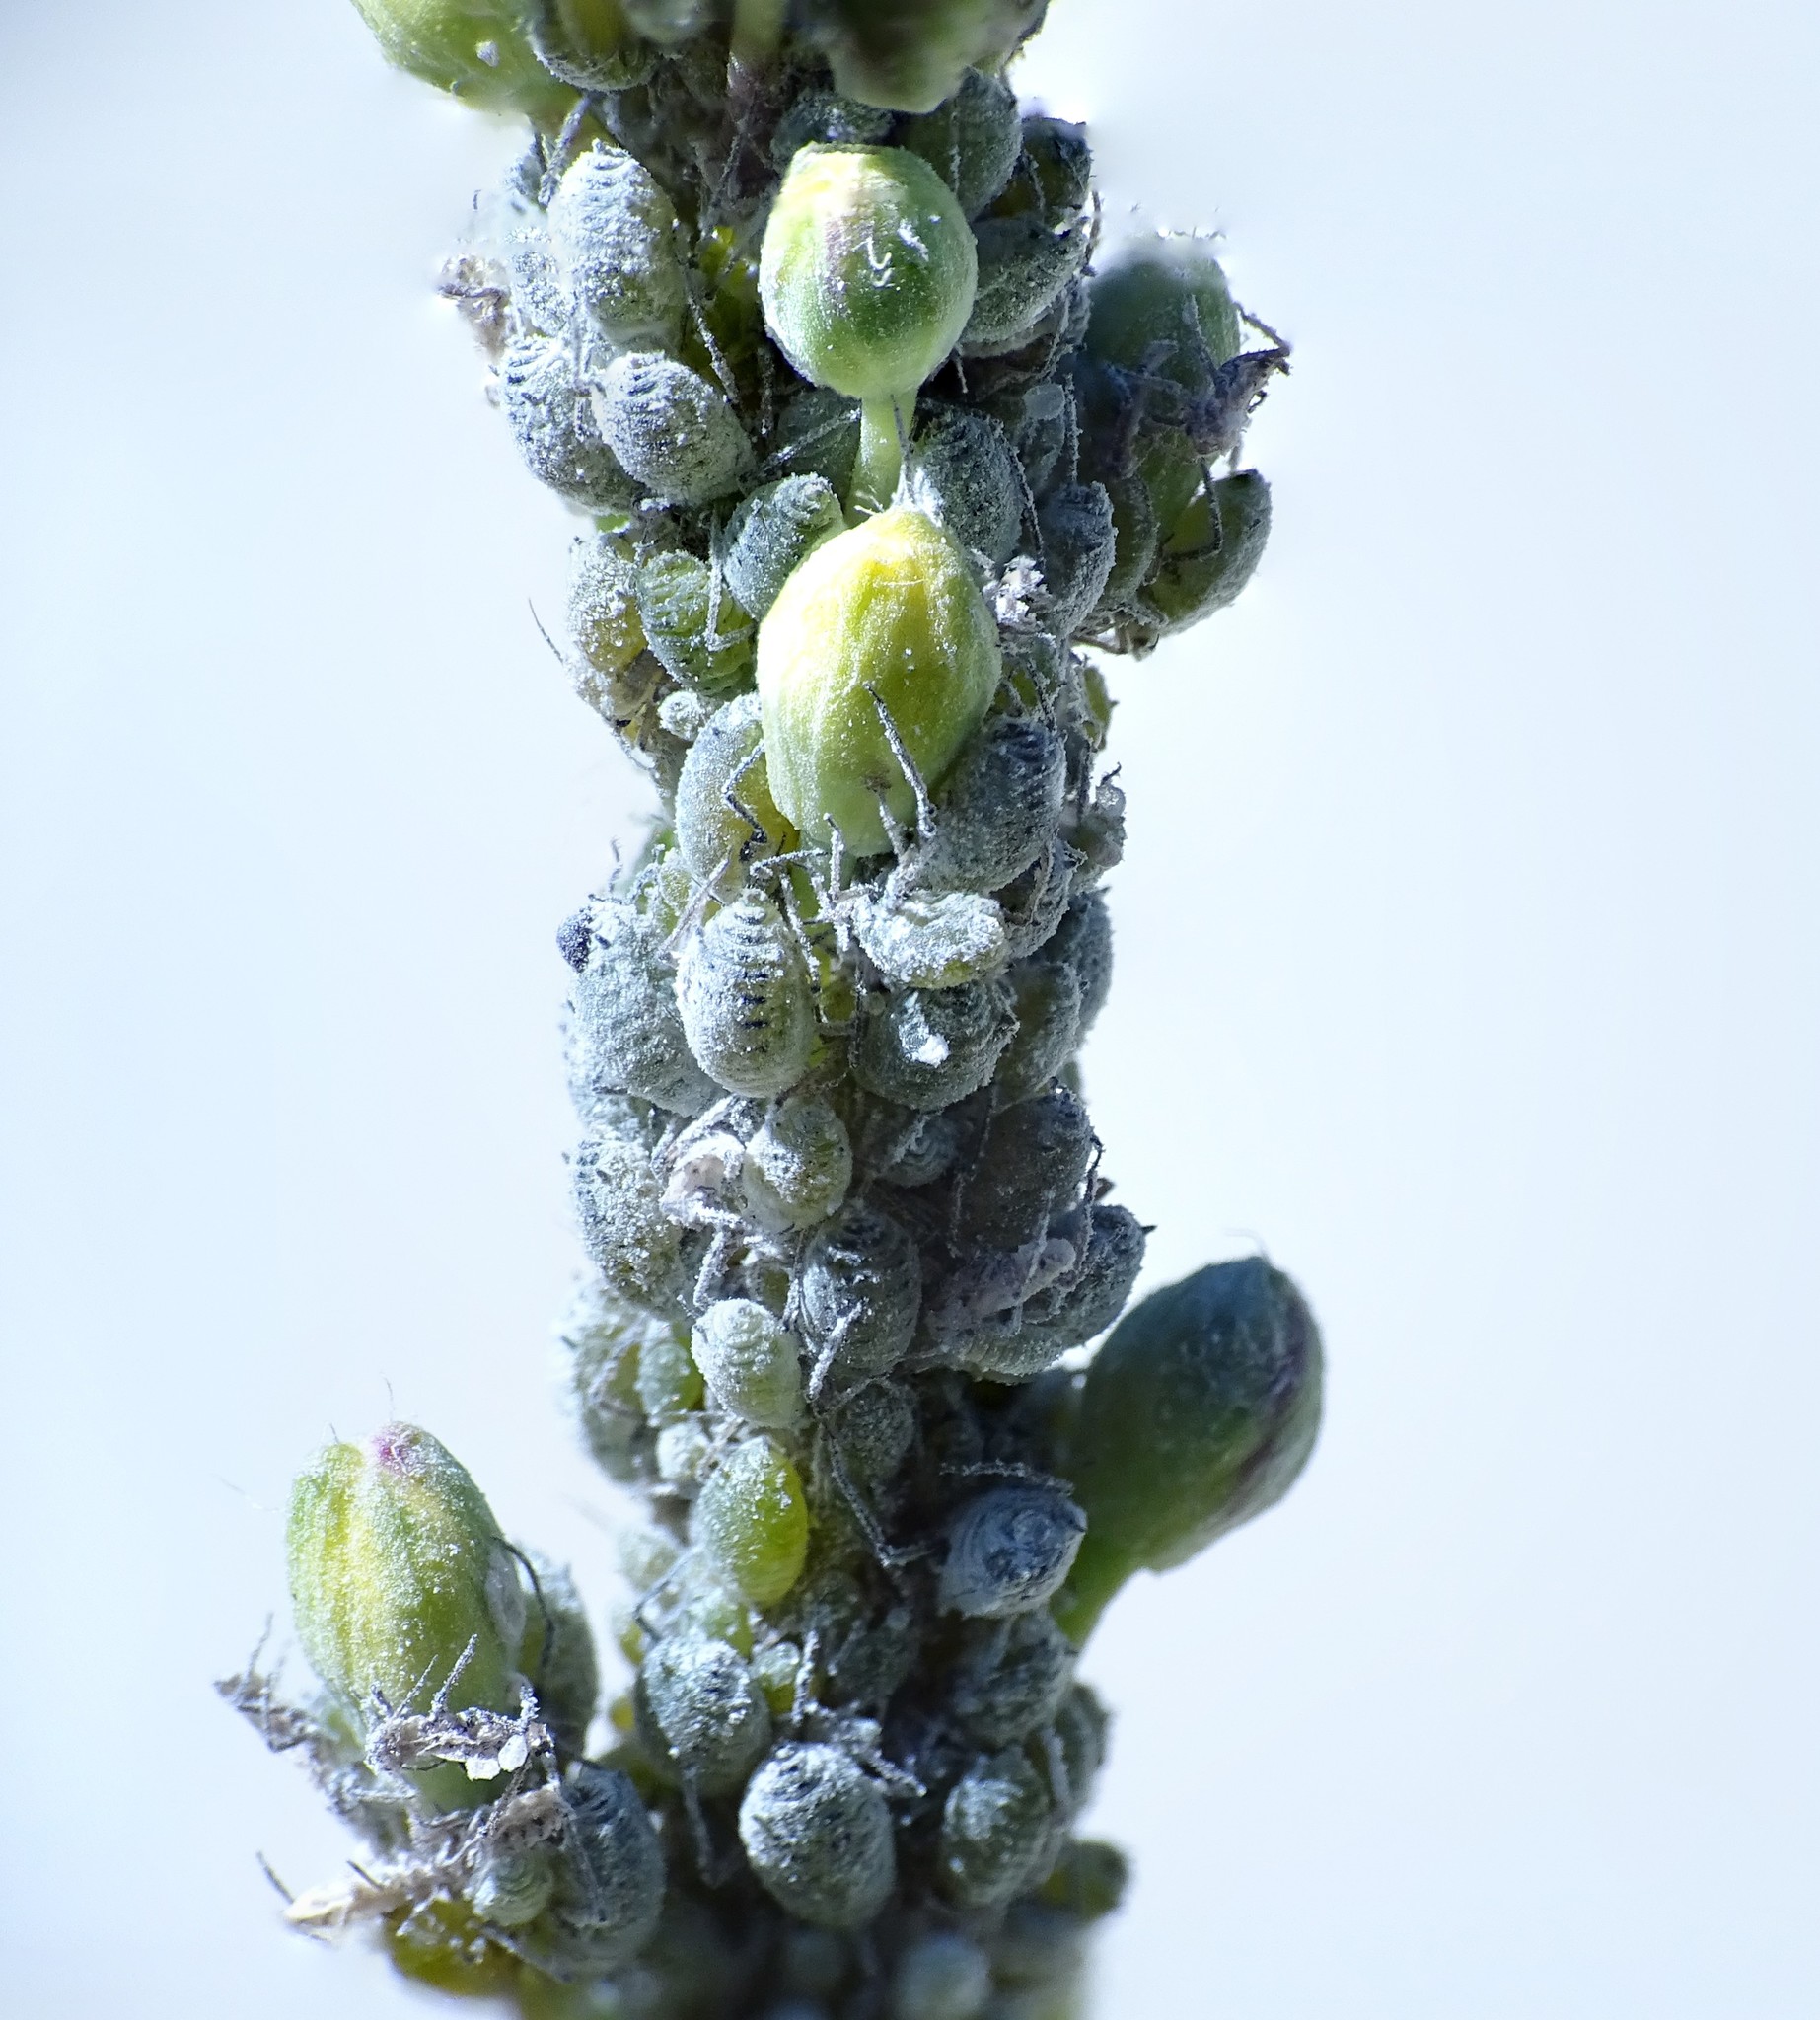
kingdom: Animalia
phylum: Arthropoda
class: Insecta
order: Hemiptera
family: Aphididae
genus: Brevicoryne
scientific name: Brevicoryne brassicae
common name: Cabbage aphid
